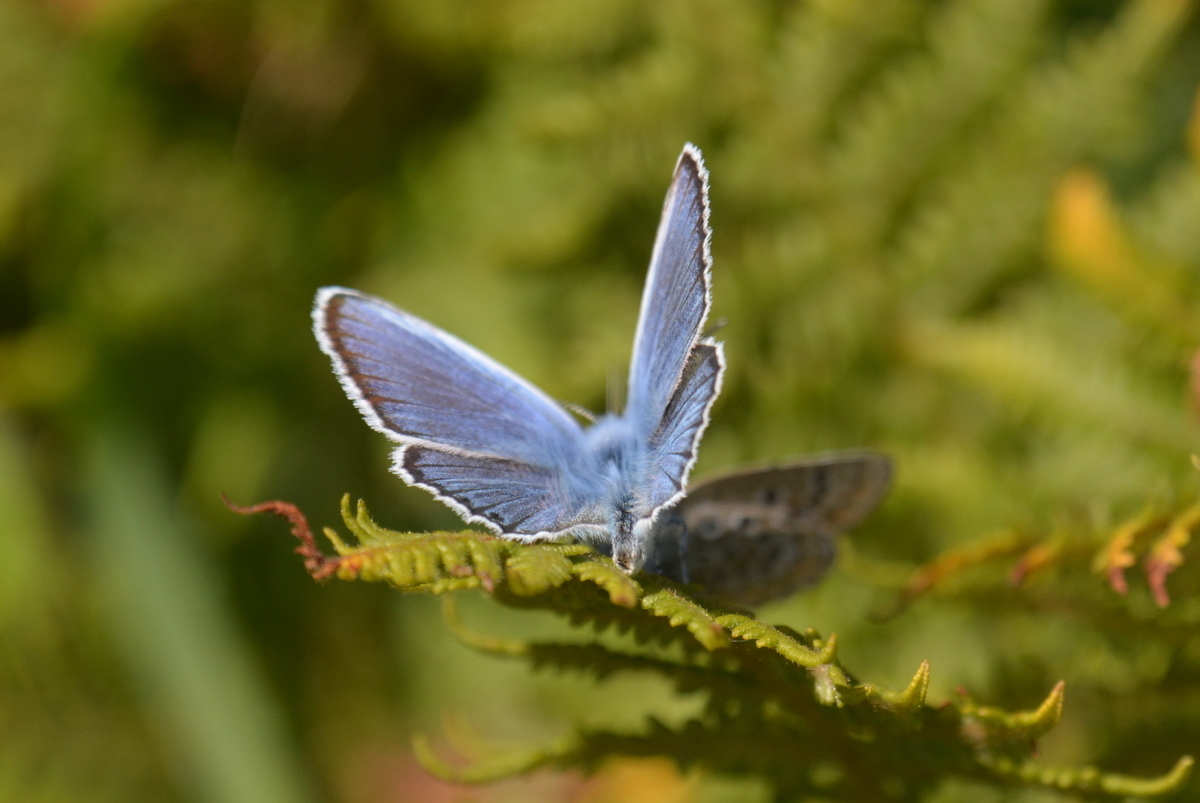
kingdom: Animalia
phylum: Arthropoda
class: Insecta
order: Lepidoptera
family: Lycaenidae
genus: Plebejus
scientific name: Plebejus argus
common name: Silver-studded blue
